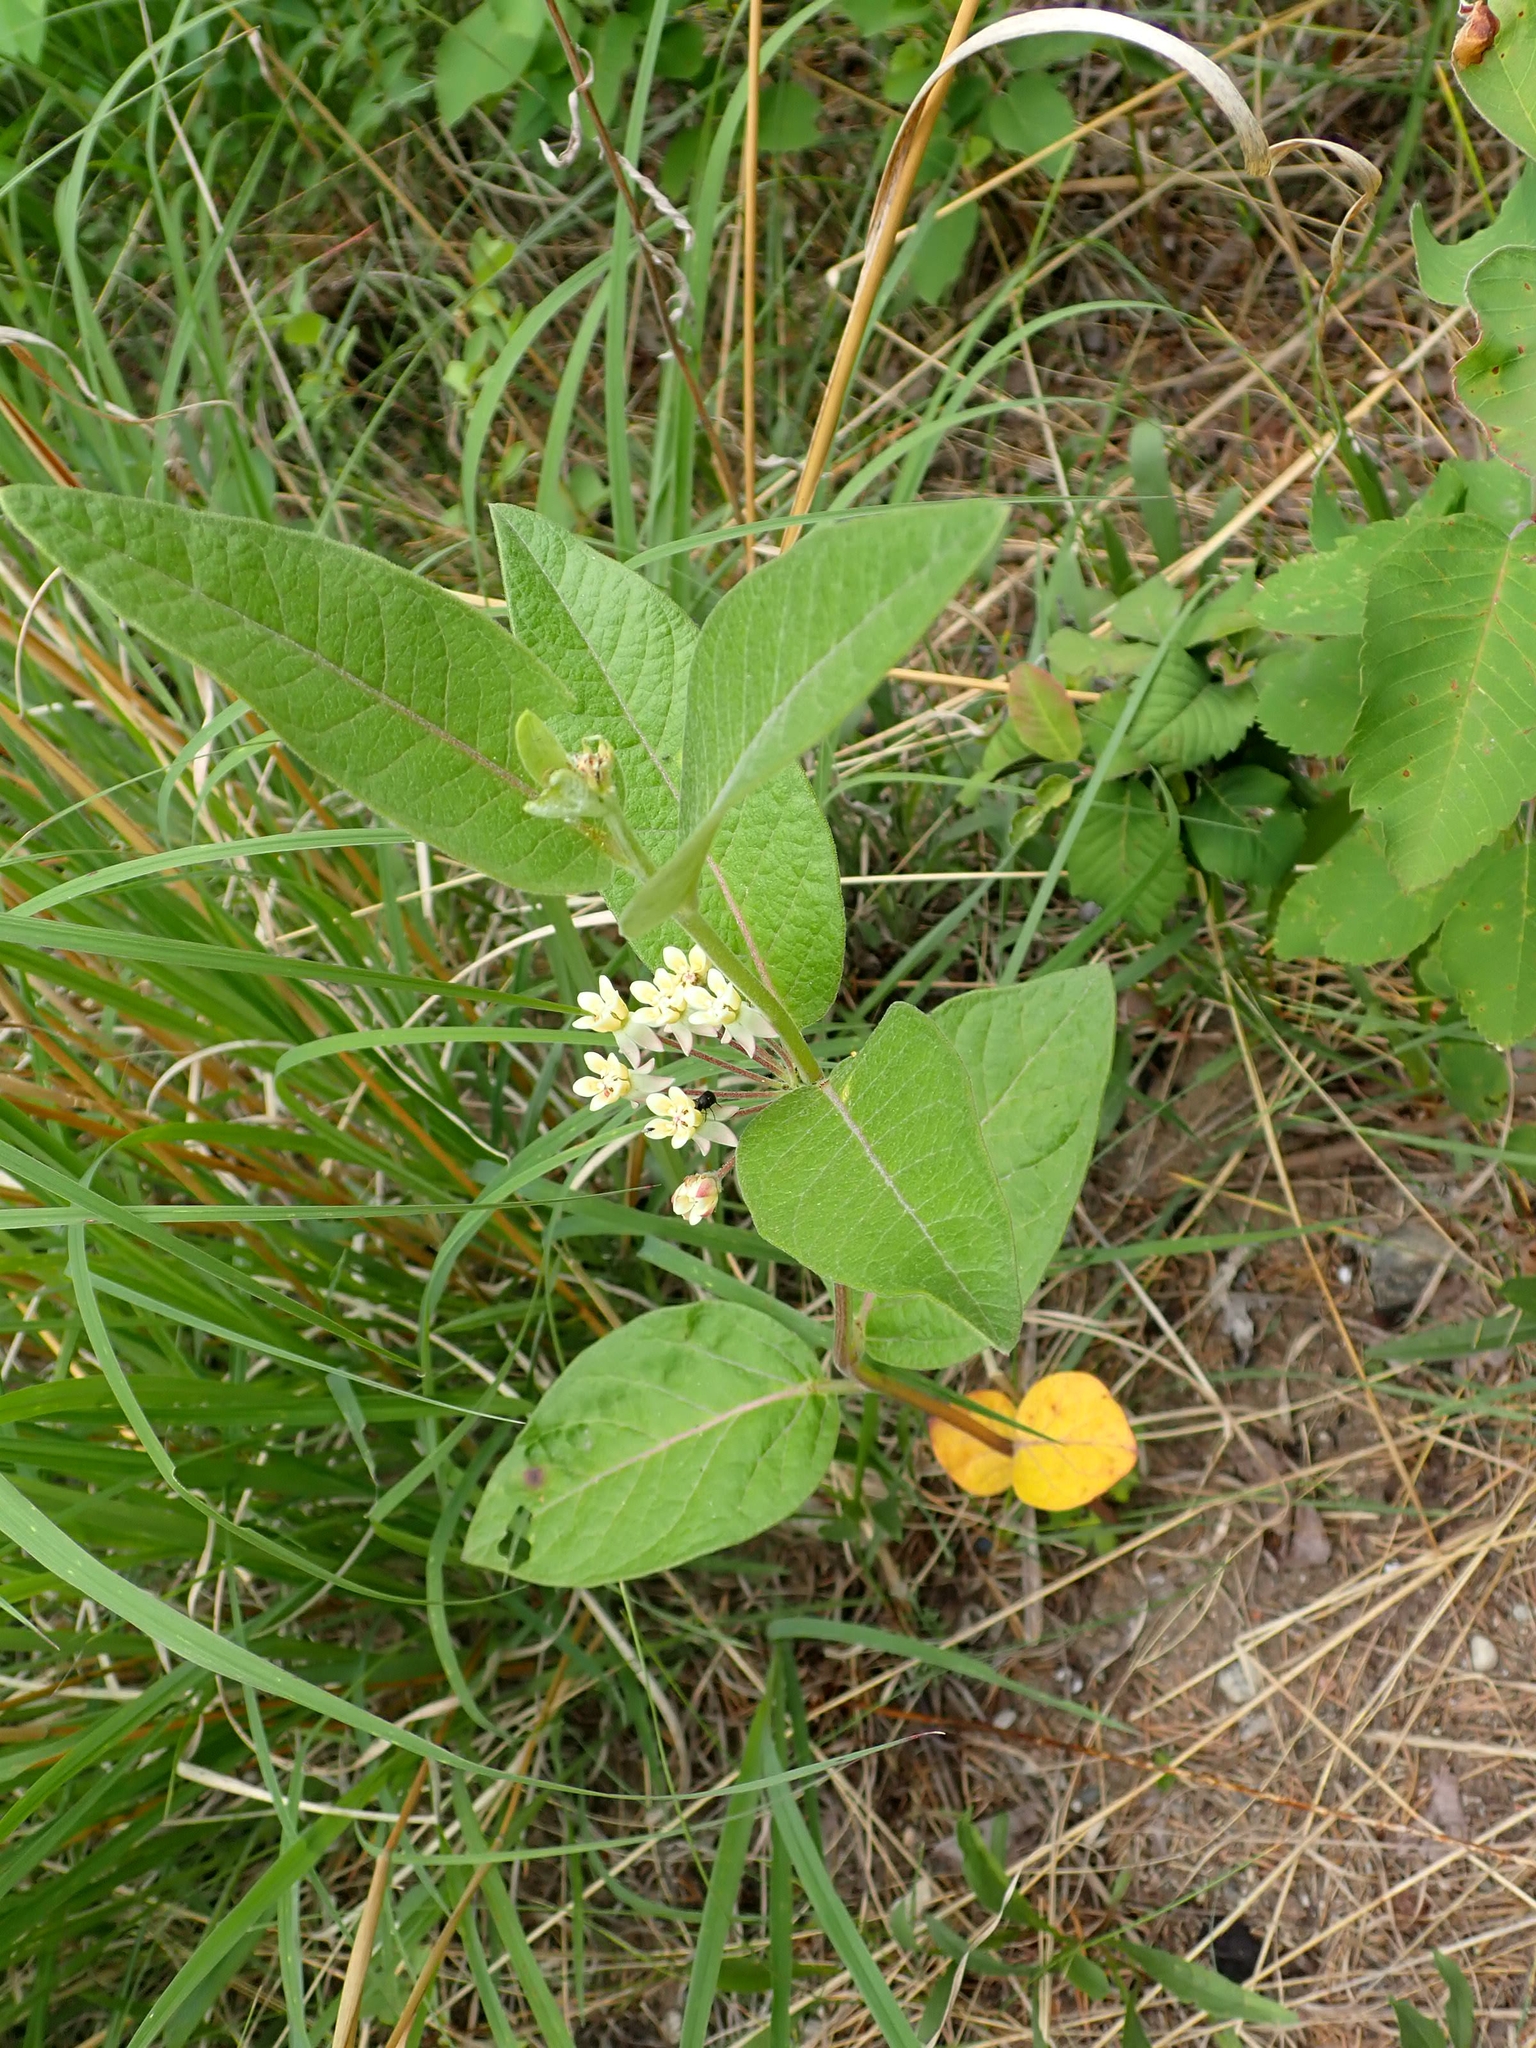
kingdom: Plantae
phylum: Tracheophyta
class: Magnoliopsida
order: Gentianales
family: Apocynaceae
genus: Asclepias
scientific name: Asclepias ovalifolia
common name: Dwarf milkweed
